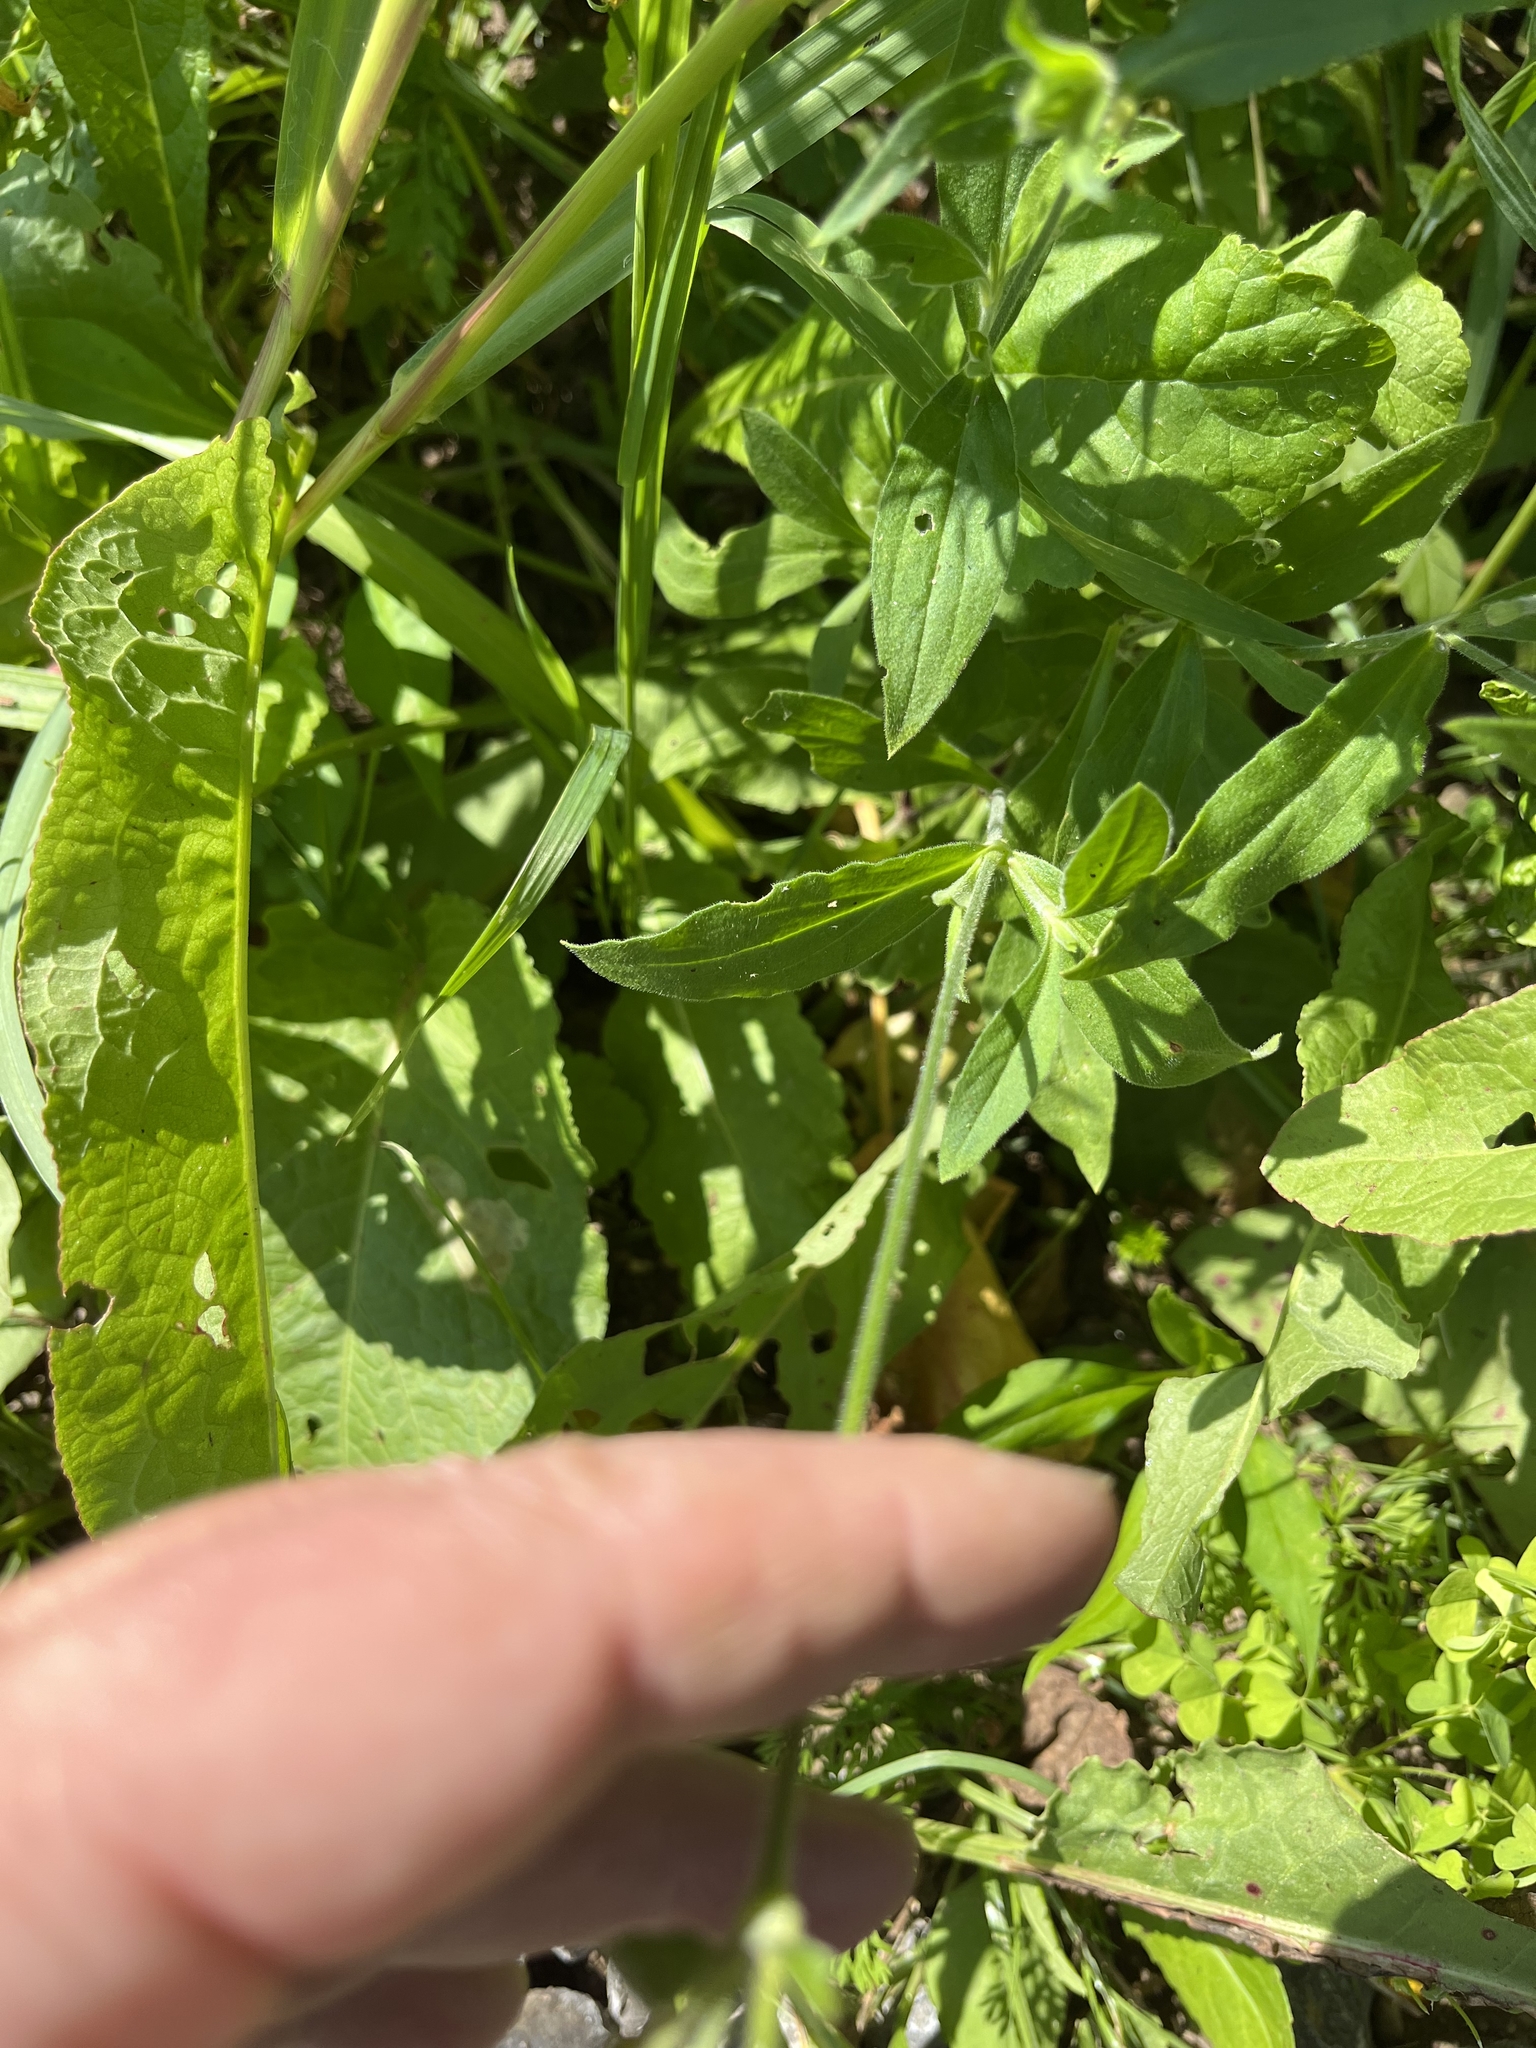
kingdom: Plantae
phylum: Tracheophyta
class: Magnoliopsida
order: Caryophyllales
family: Caryophyllaceae
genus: Silene
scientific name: Silene latifolia
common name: White campion
